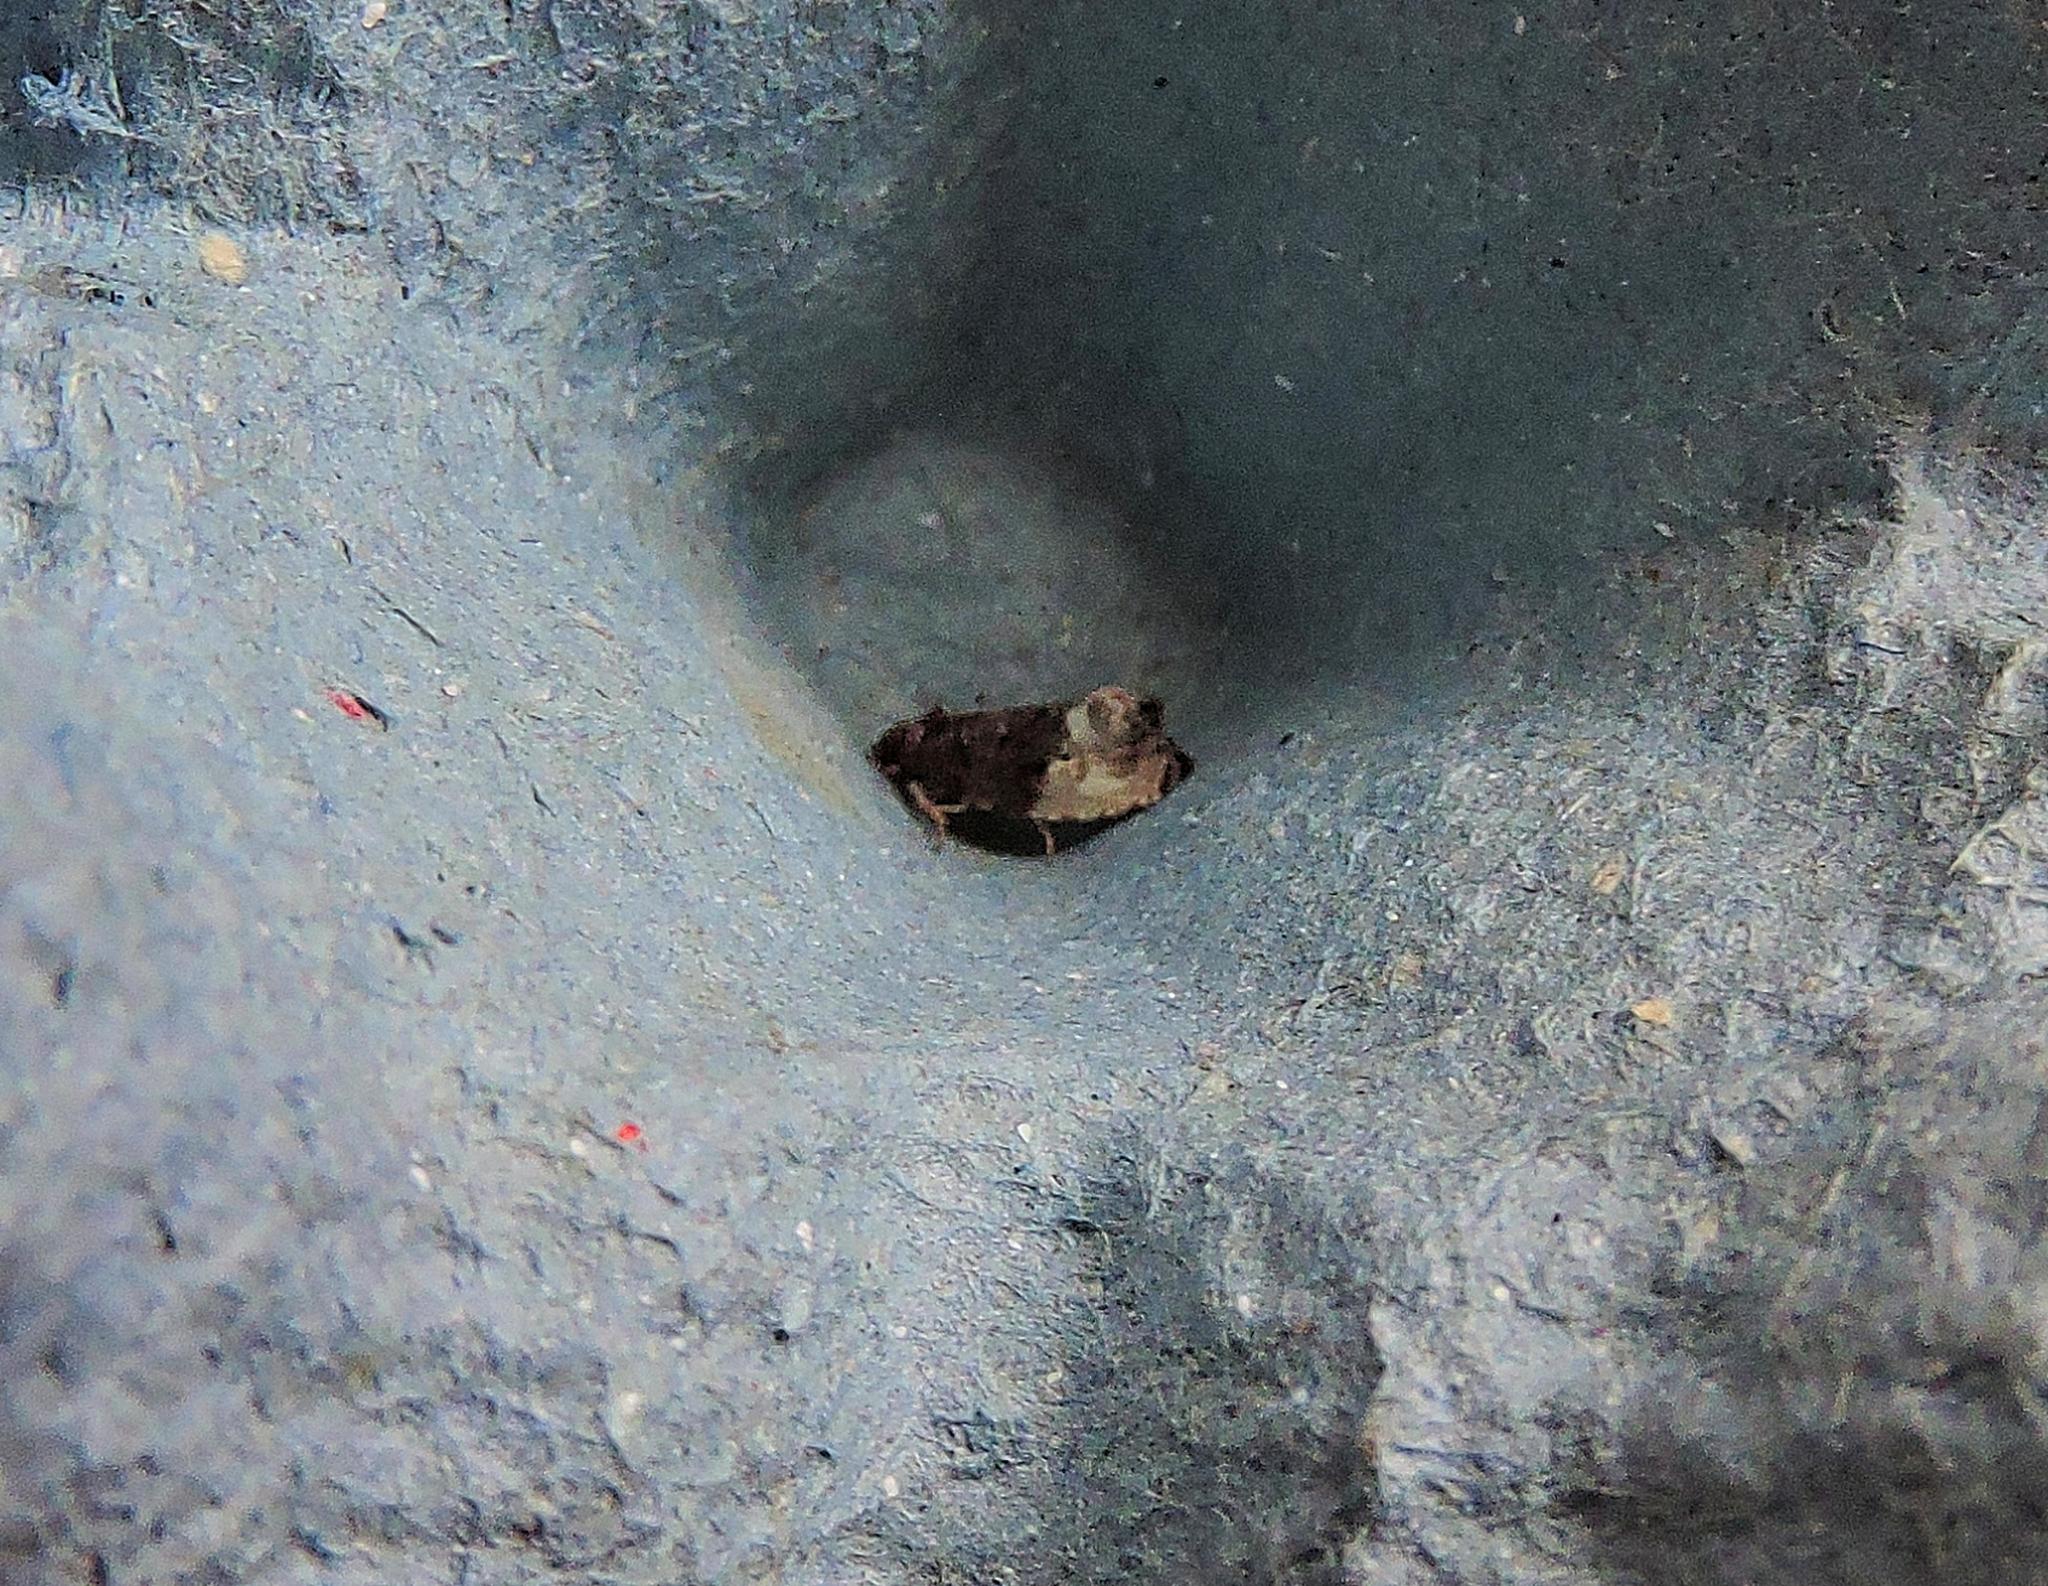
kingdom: Animalia
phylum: Arthropoda
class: Insecta
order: Lepidoptera
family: Tortricidae
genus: Hedya
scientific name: Hedya nubiferana
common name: Marbled orchard tortrix
